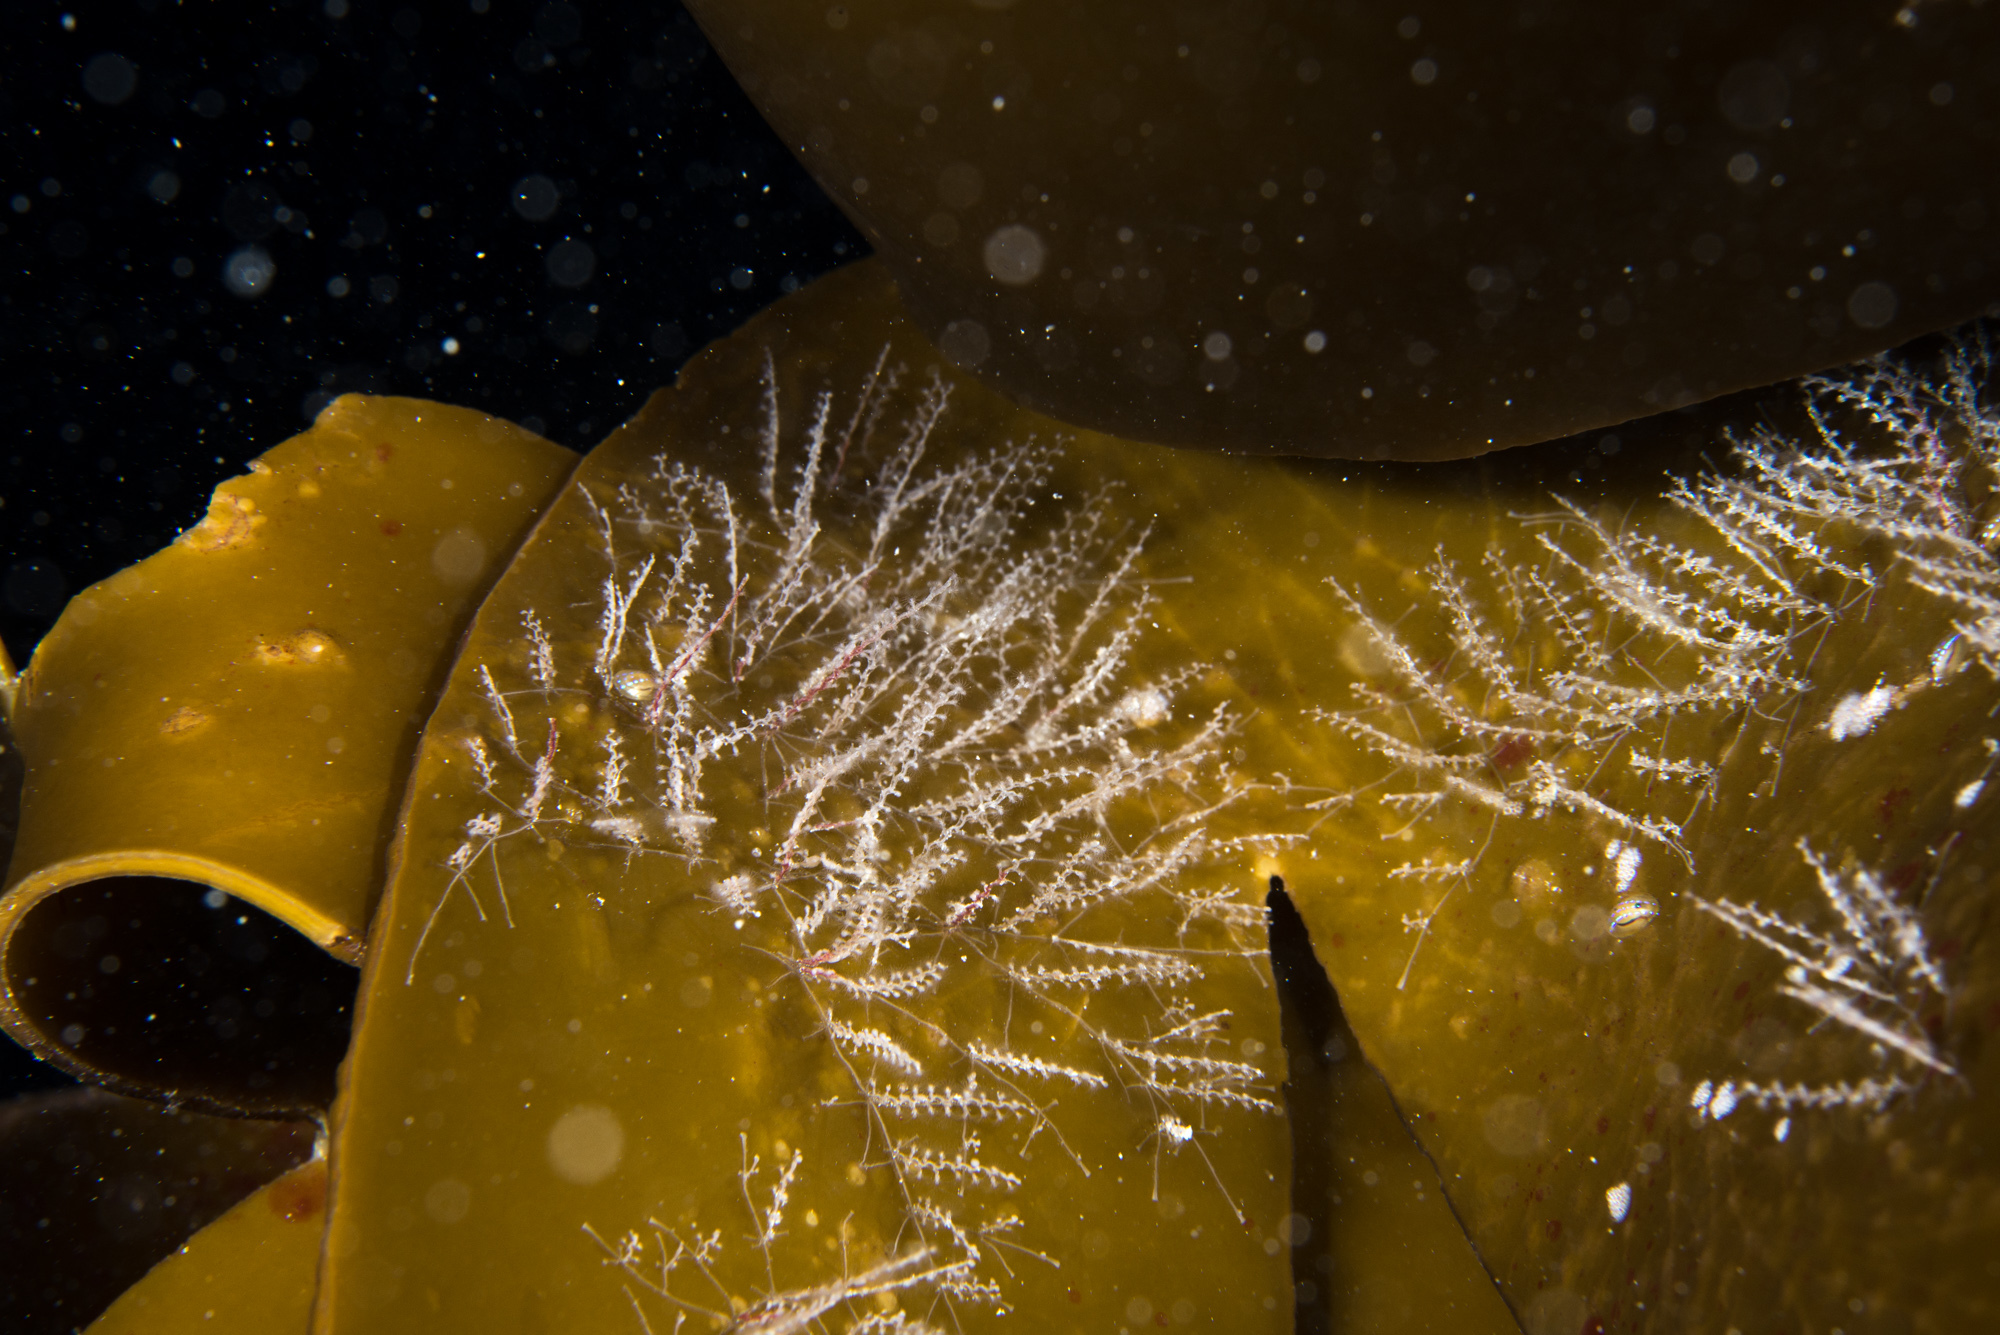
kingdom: Animalia
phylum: Cnidaria
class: Hydrozoa
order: Leptothecata
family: Campanulariidae
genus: Obelia
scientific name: Obelia geniculata
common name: Bell hydroid
